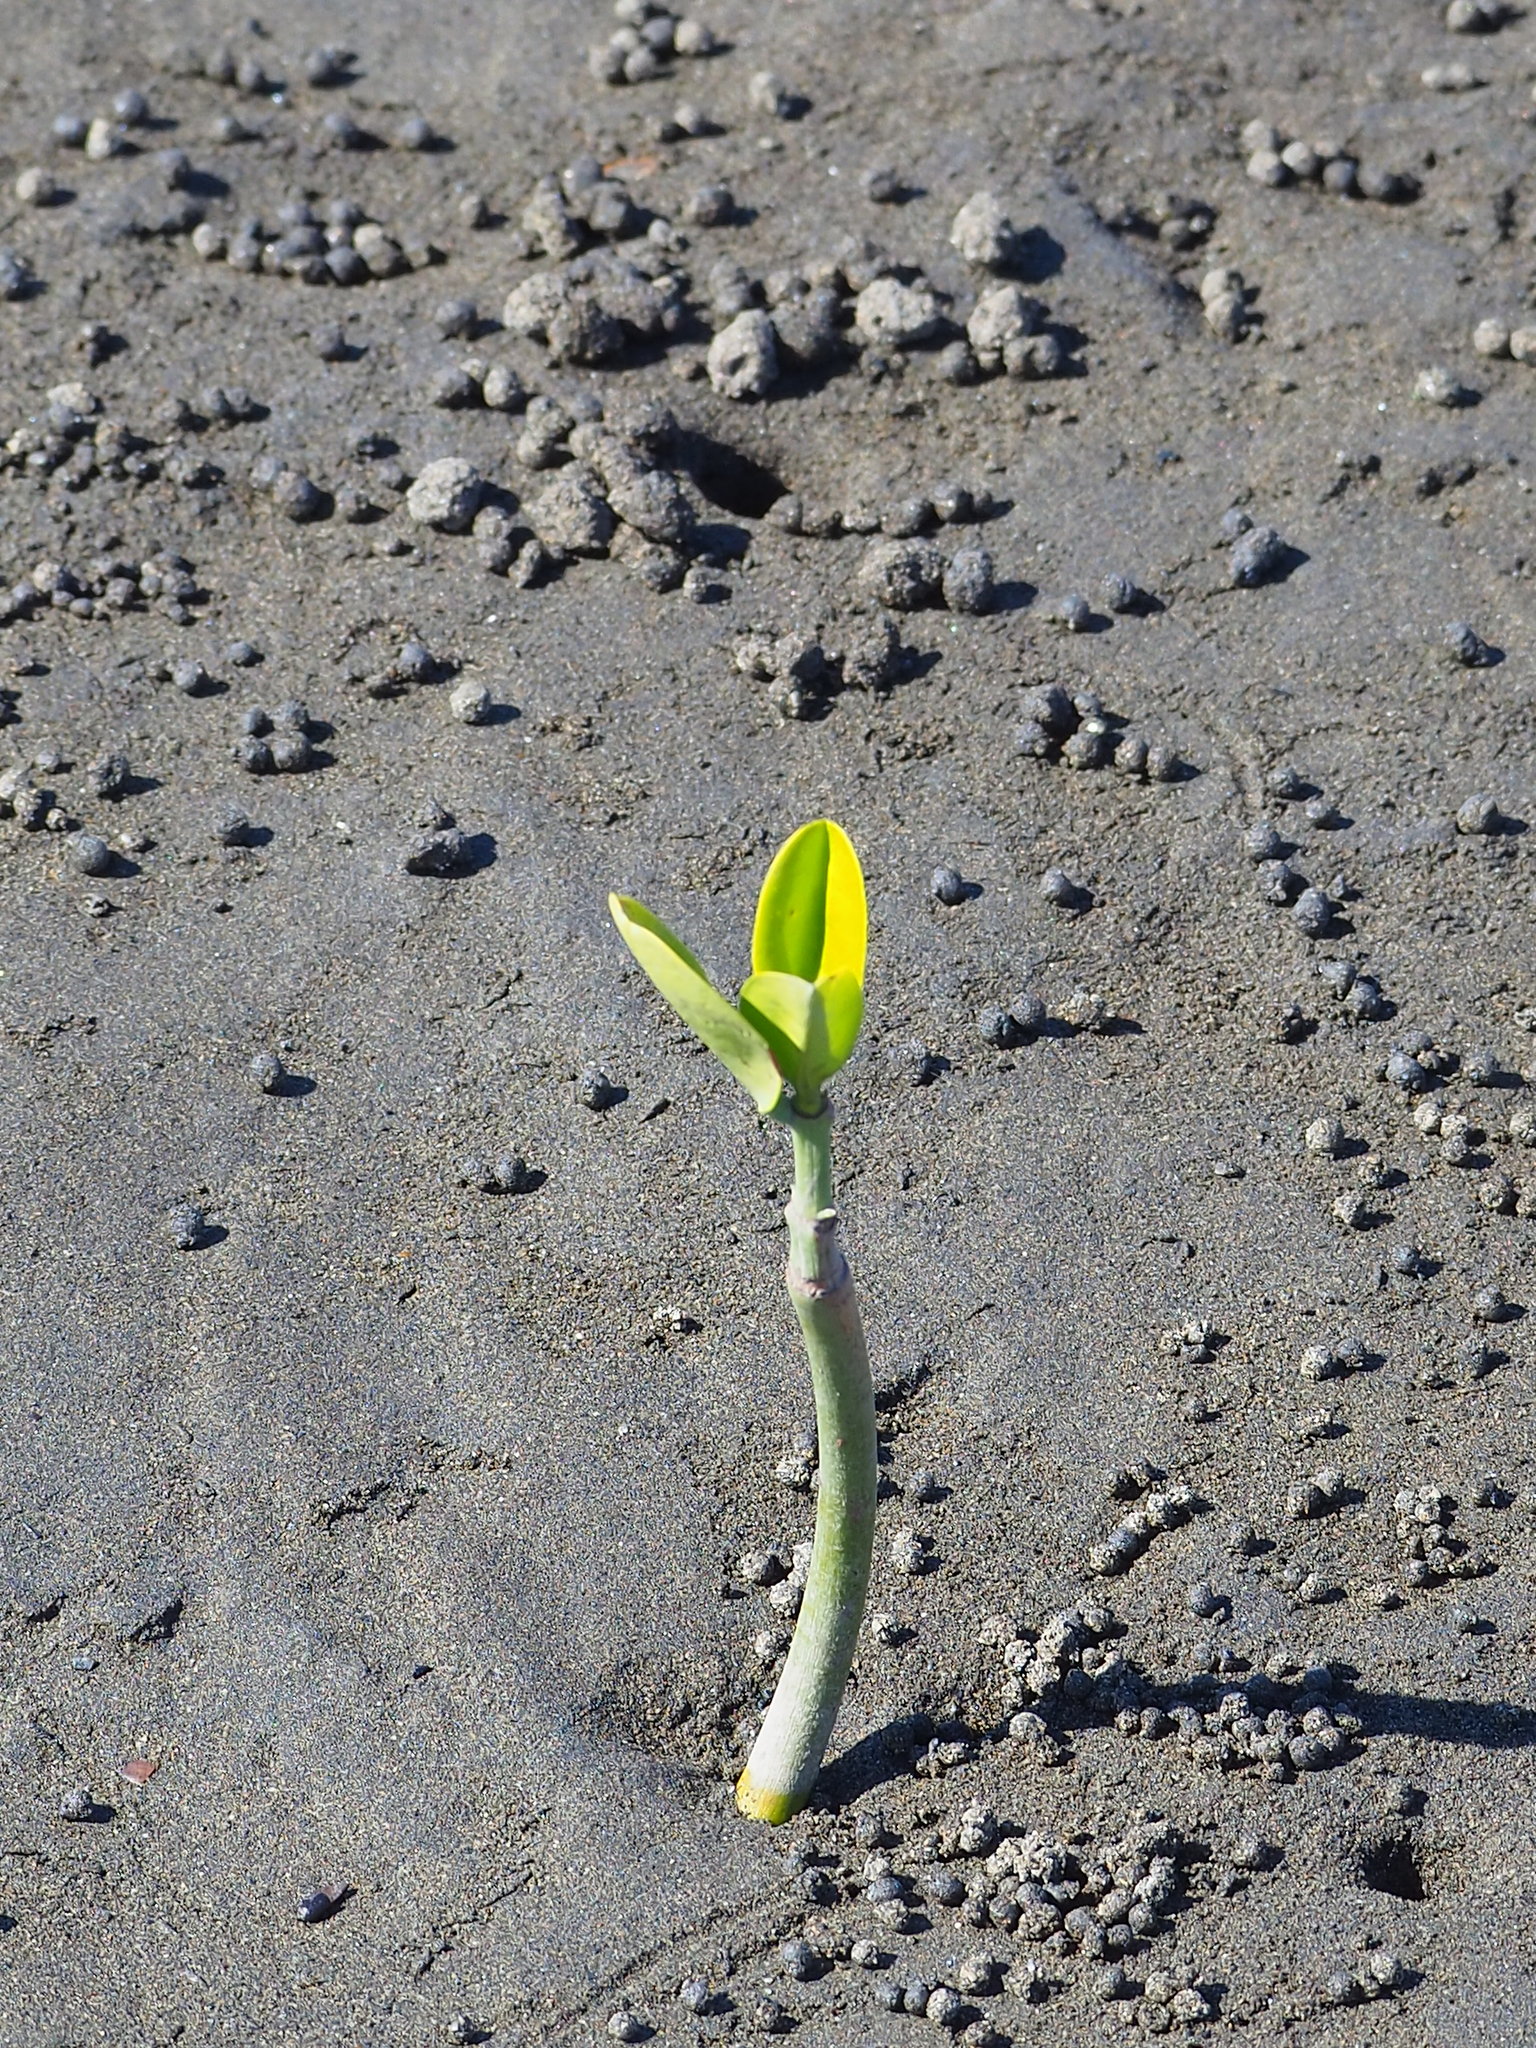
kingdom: Plantae
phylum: Tracheophyta
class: Magnoliopsida
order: Malpighiales
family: Rhizophoraceae
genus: Kandelia
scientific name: Kandelia obovata
